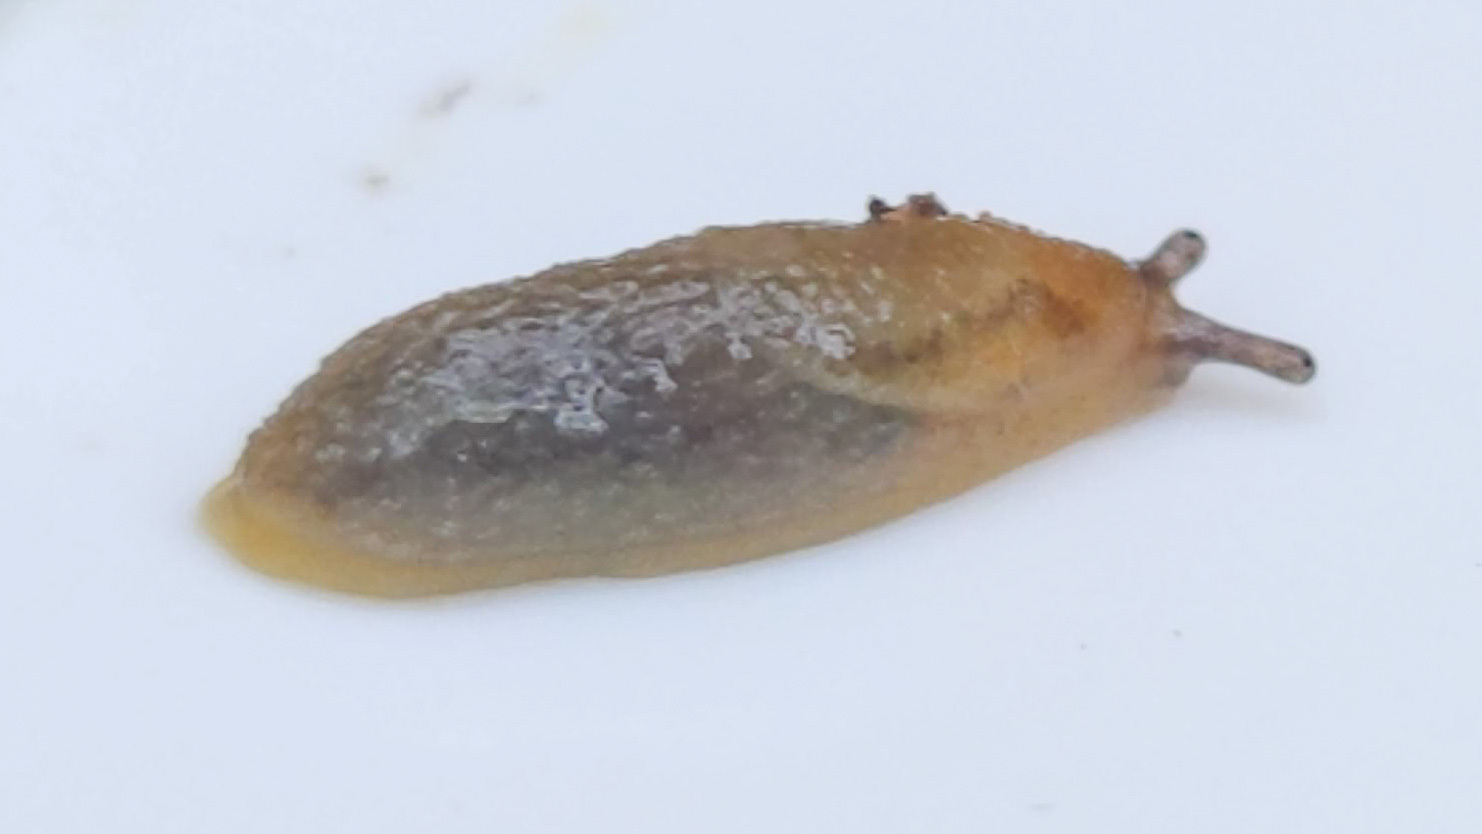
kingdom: Animalia
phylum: Mollusca
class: Gastropoda
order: Stylommatophora
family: Arionidae
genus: Arion
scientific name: Arion intermedius
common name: Hedgehog slug
